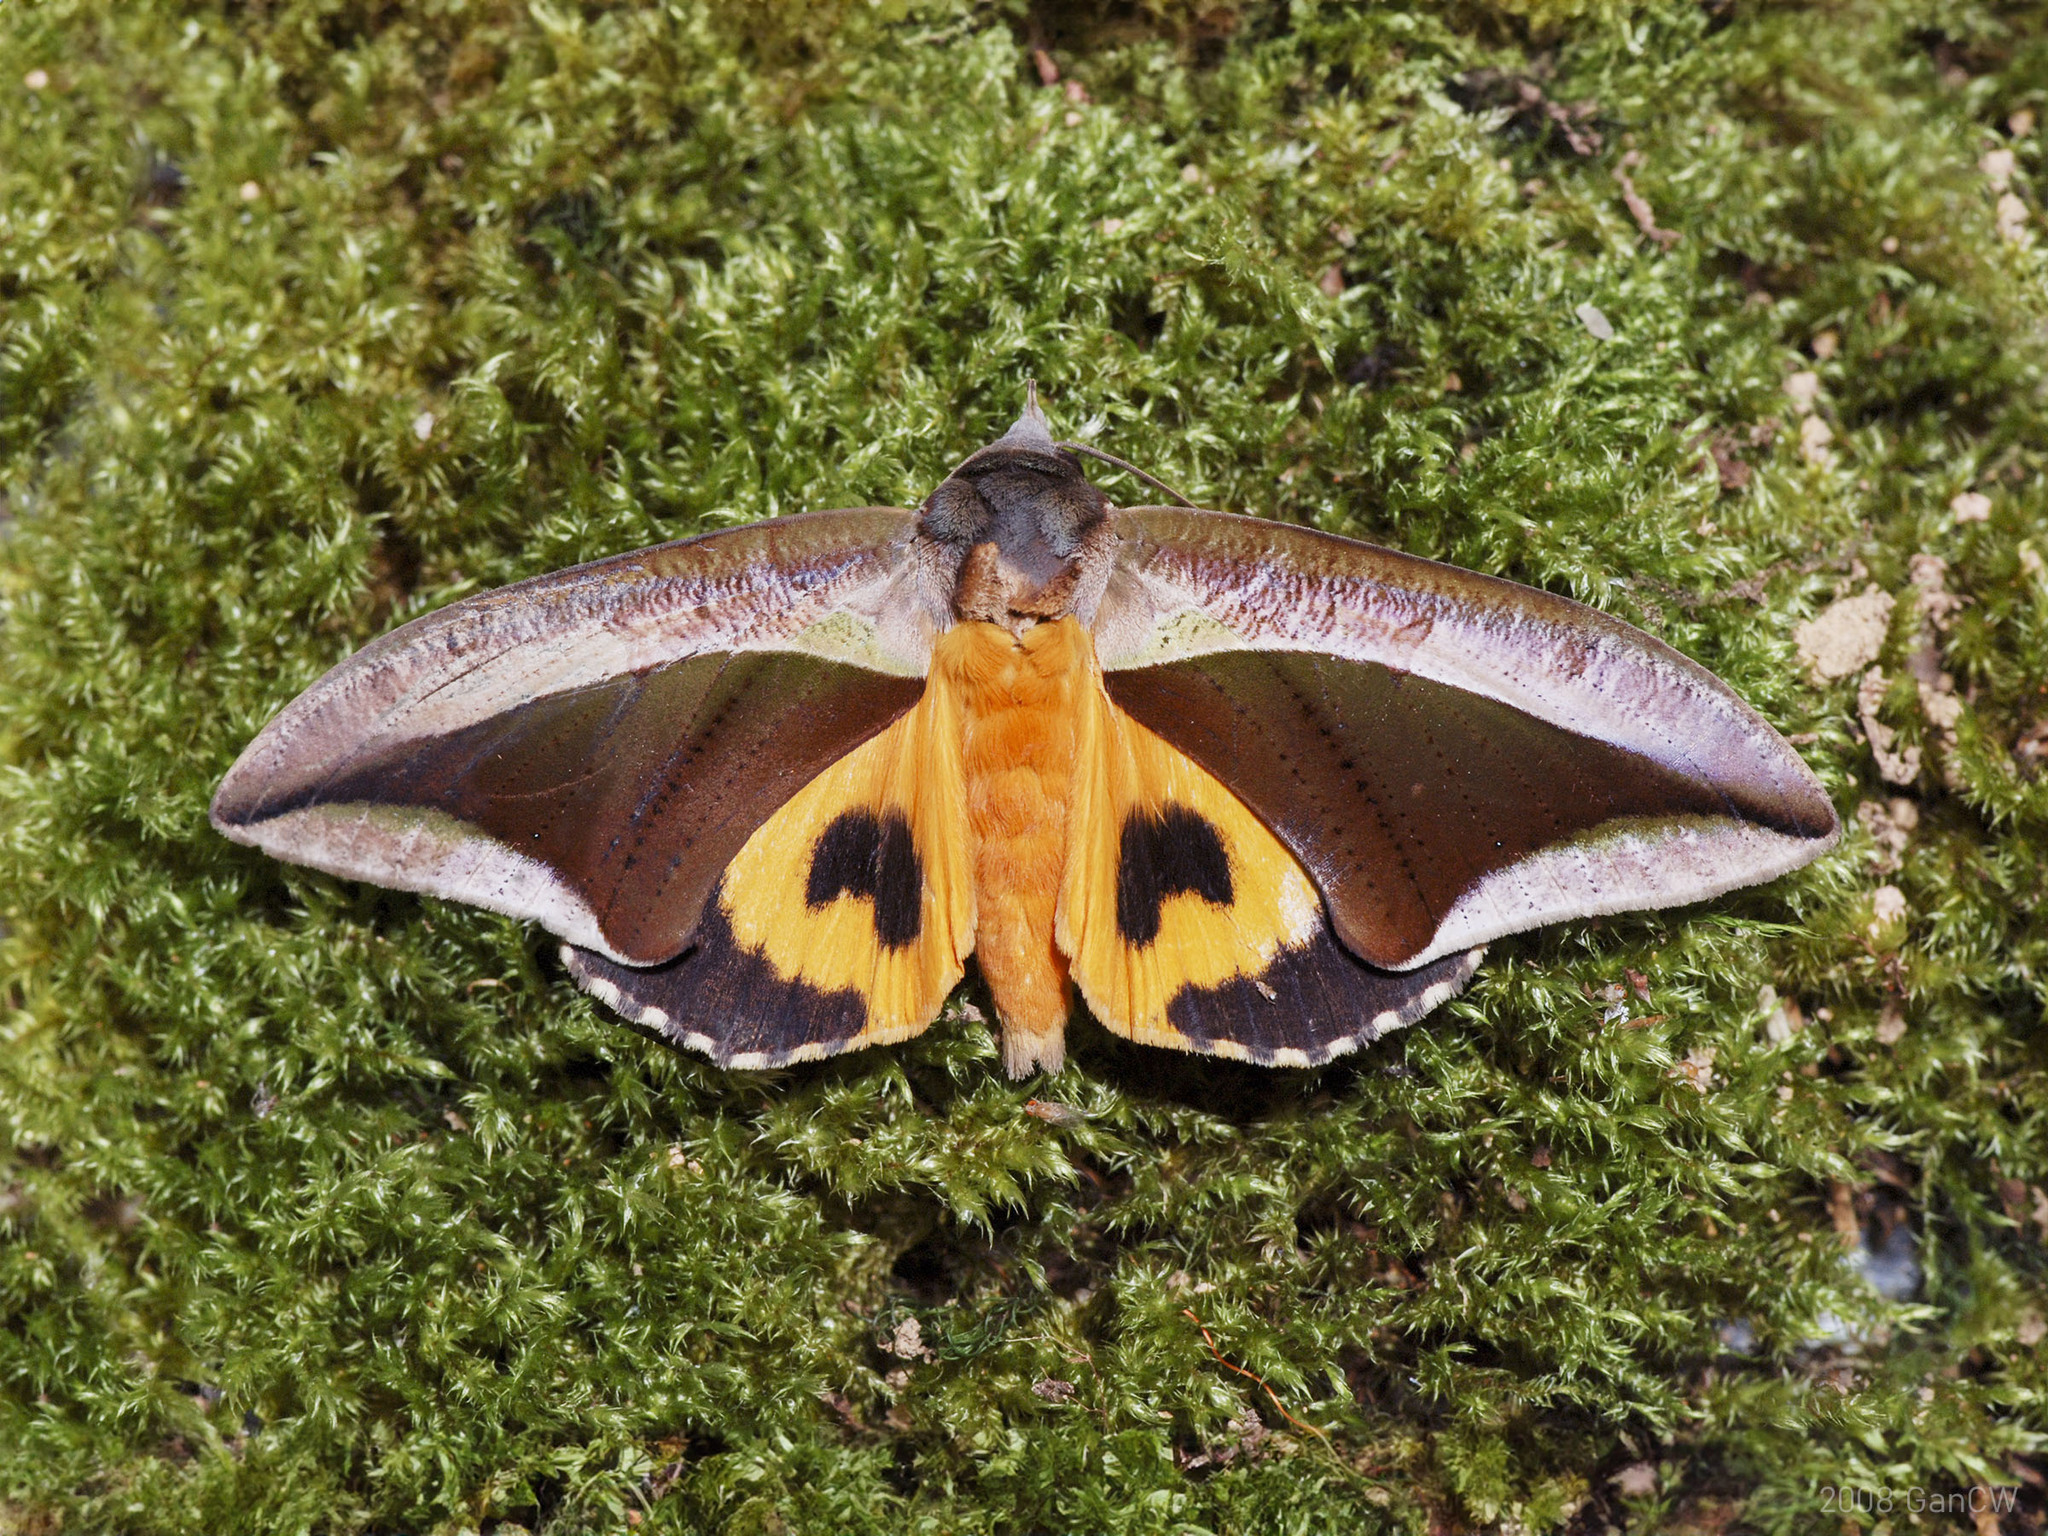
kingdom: Animalia
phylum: Arthropoda
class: Insecta
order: Lepidoptera
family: Erebidae
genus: Eudocima
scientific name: Eudocima dividens
